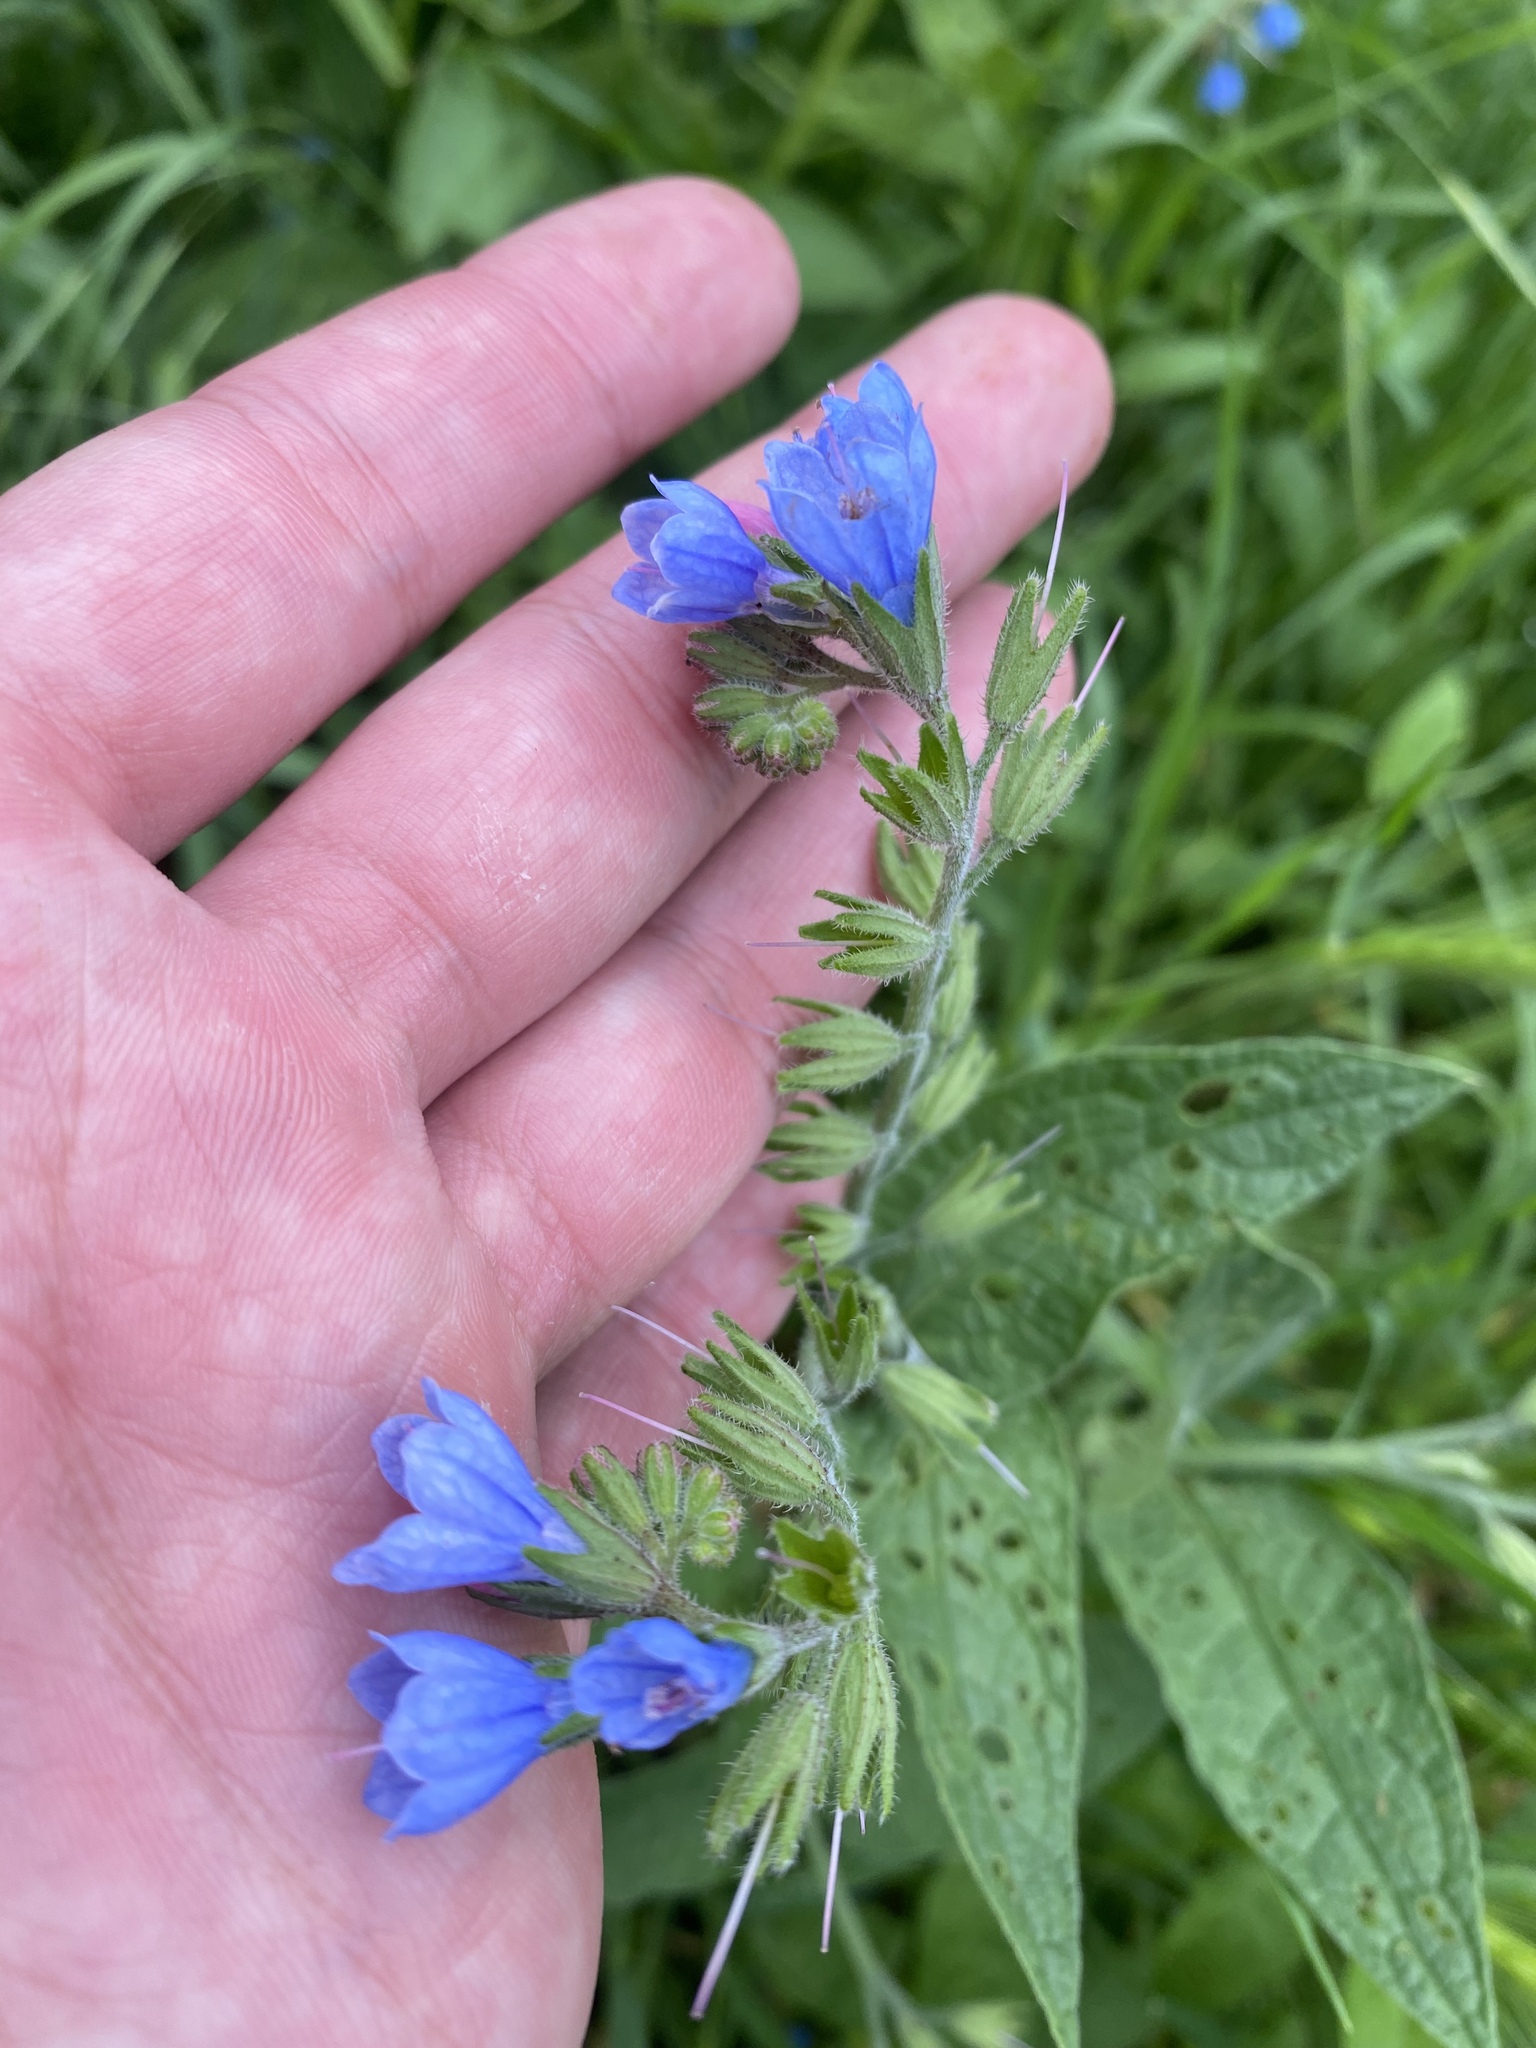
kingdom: Plantae
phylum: Tracheophyta
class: Magnoliopsida
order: Boraginales
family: Boraginaceae
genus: Symphytum
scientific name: Symphytum caucasicum
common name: Caucasian comfrey
